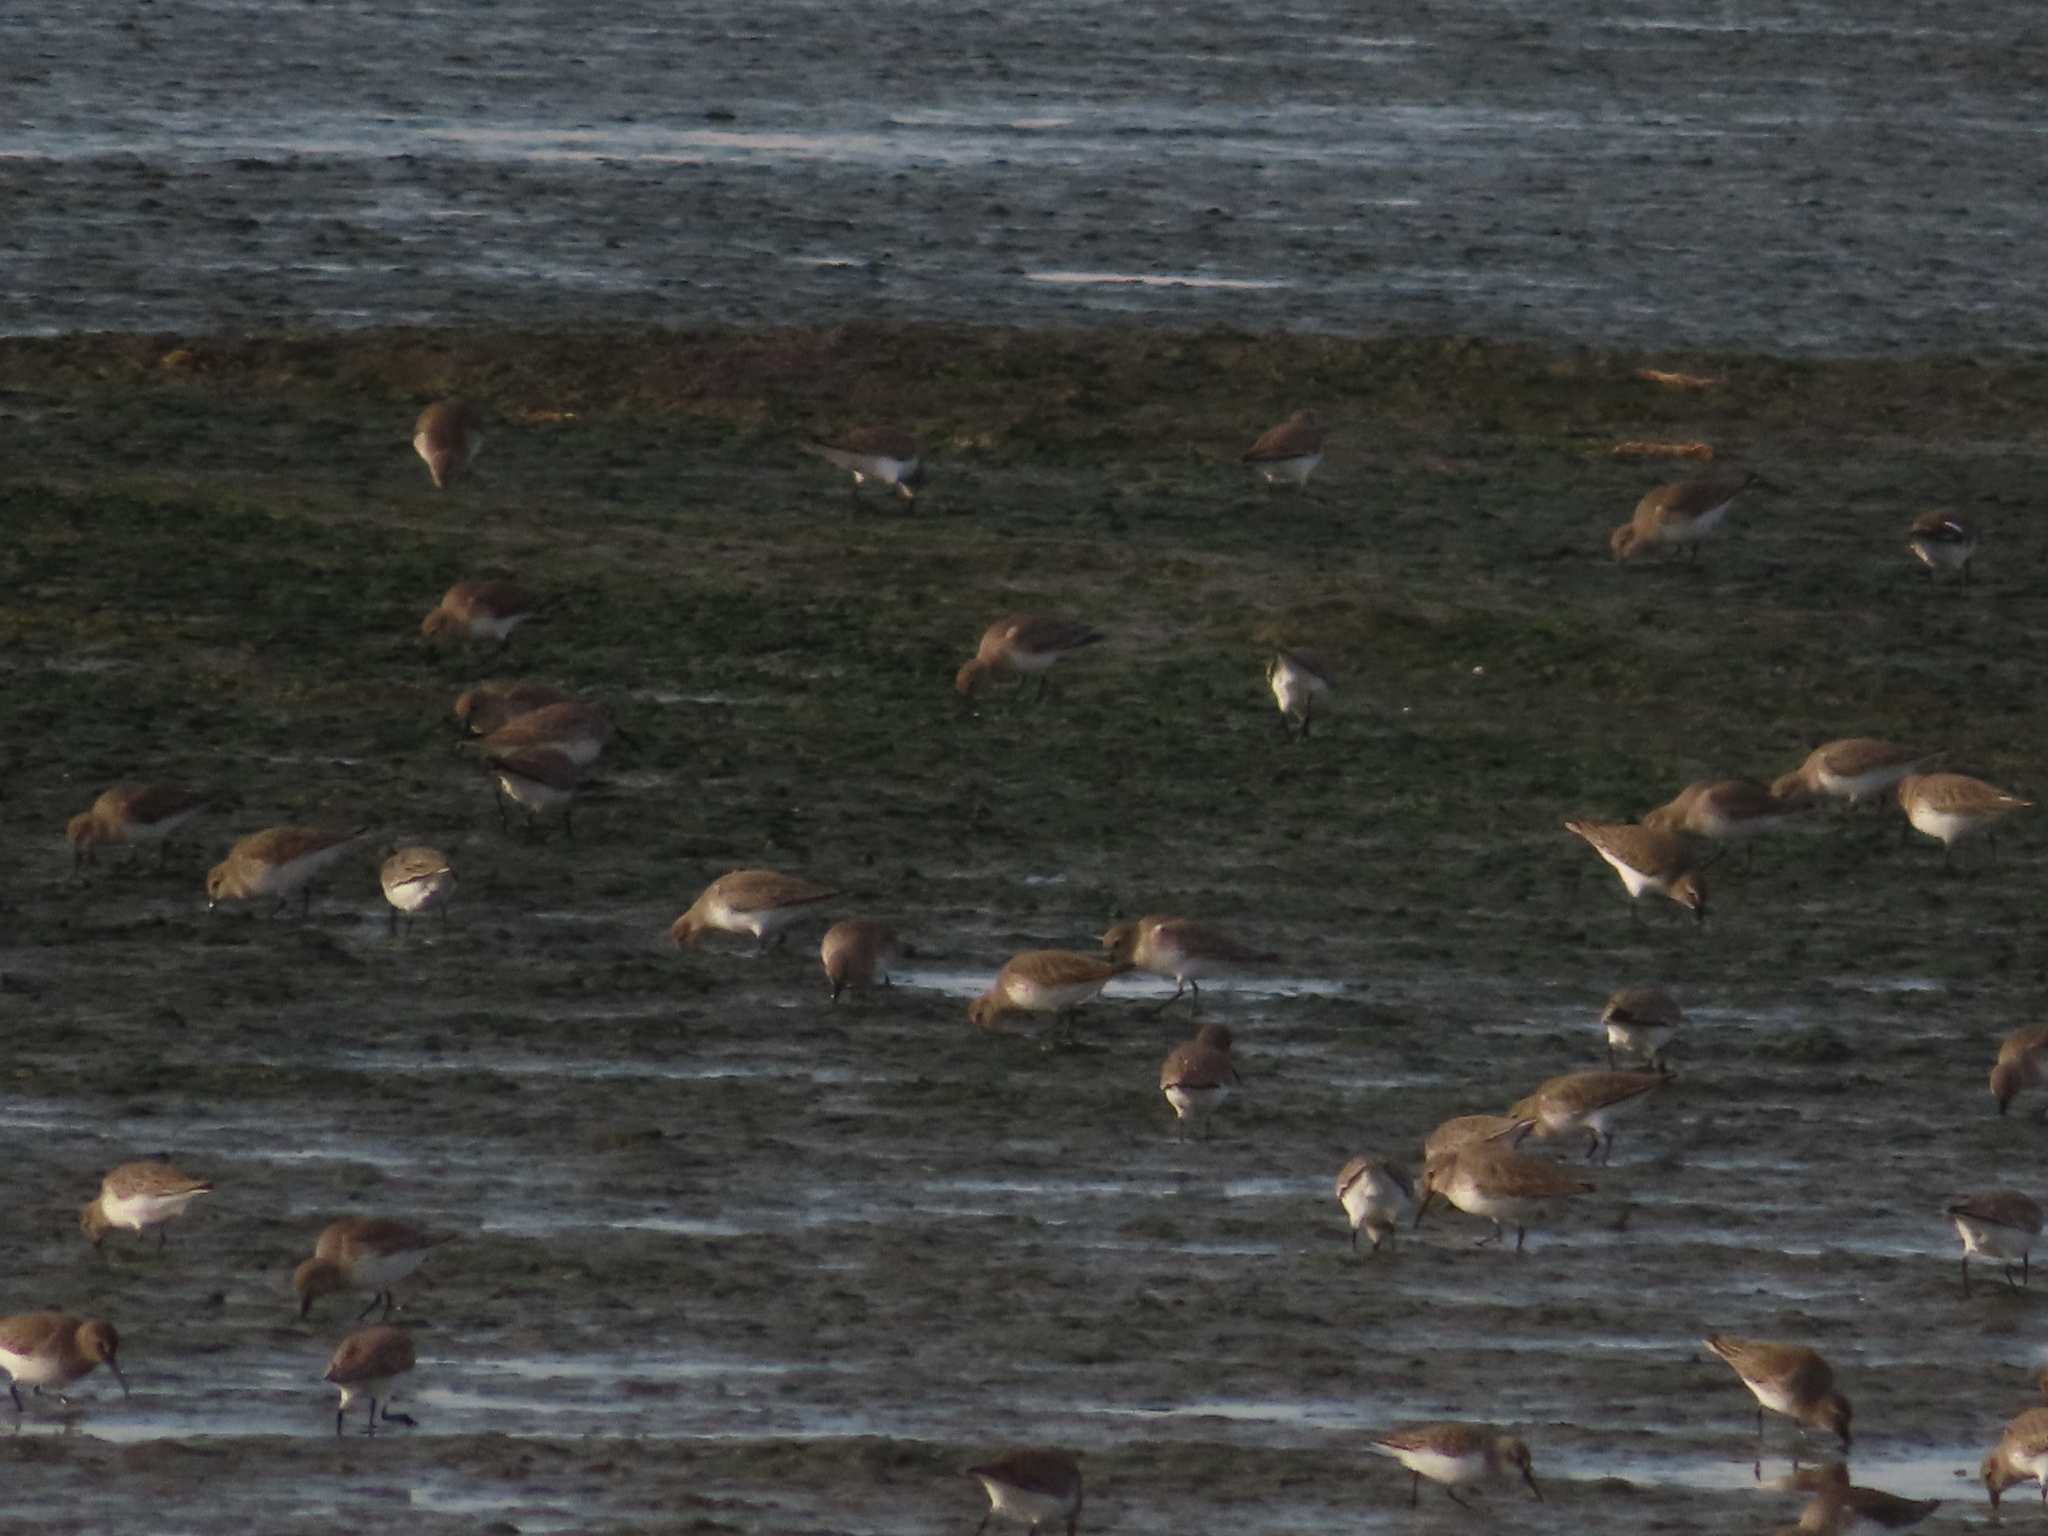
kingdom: Animalia
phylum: Chordata
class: Aves
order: Charadriiformes
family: Scolopacidae
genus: Calidris
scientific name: Calidris alpina
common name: Dunlin
